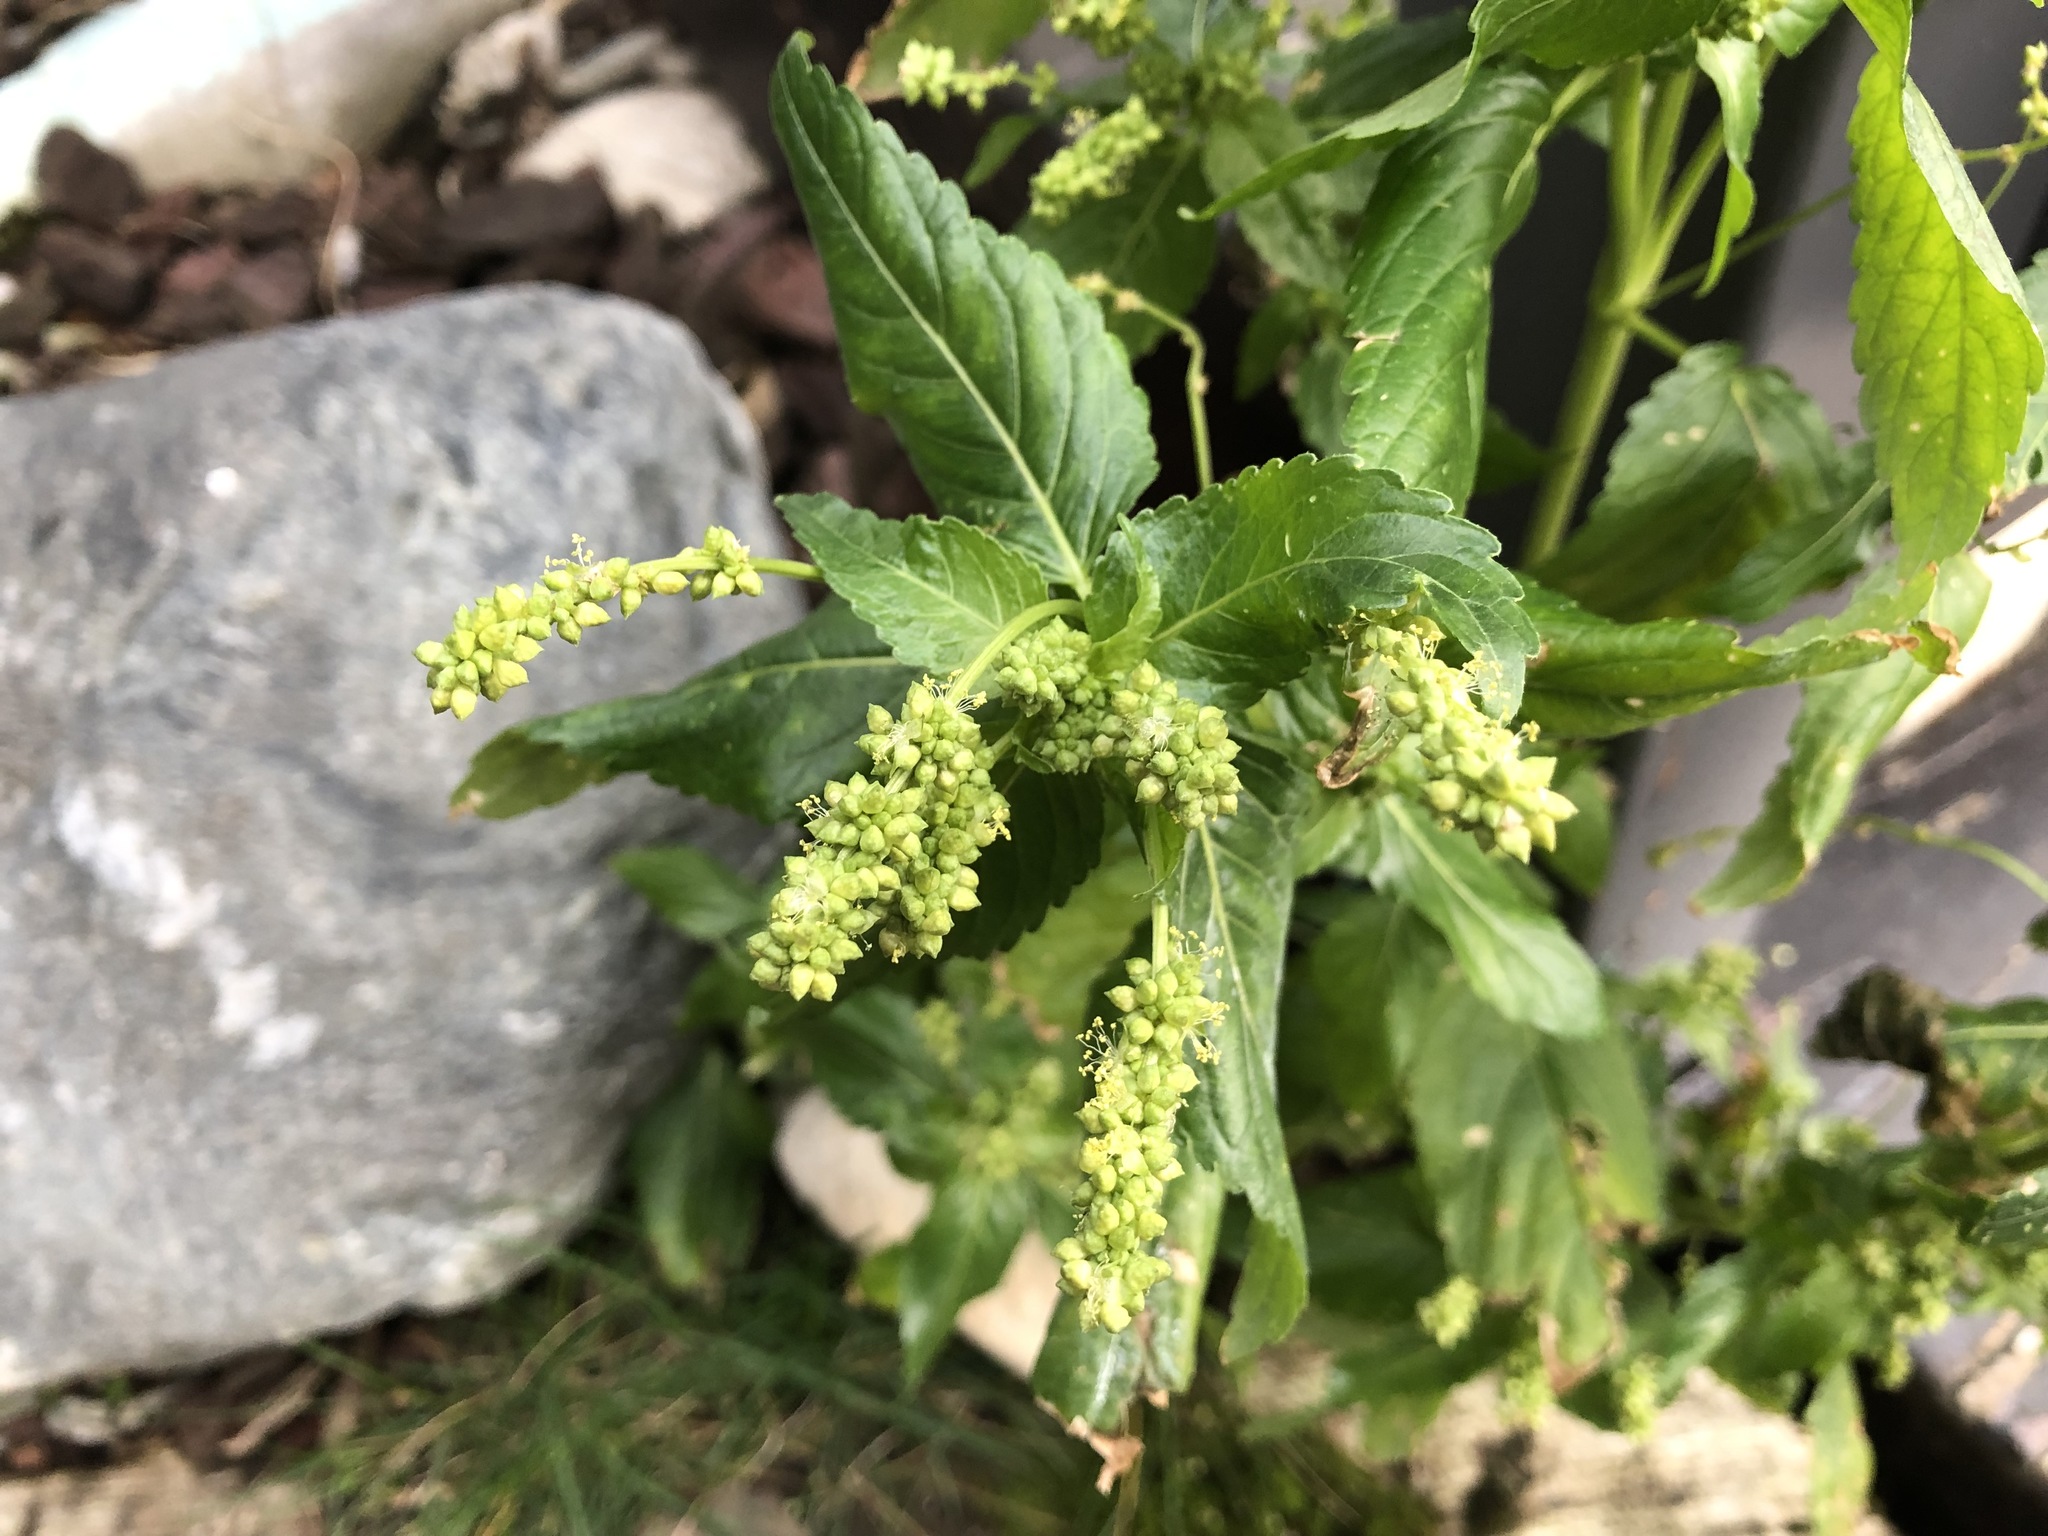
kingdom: Plantae
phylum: Tracheophyta
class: Magnoliopsida
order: Malpighiales
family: Euphorbiaceae
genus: Mercurialis
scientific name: Mercurialis annua
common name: Annual mercury
